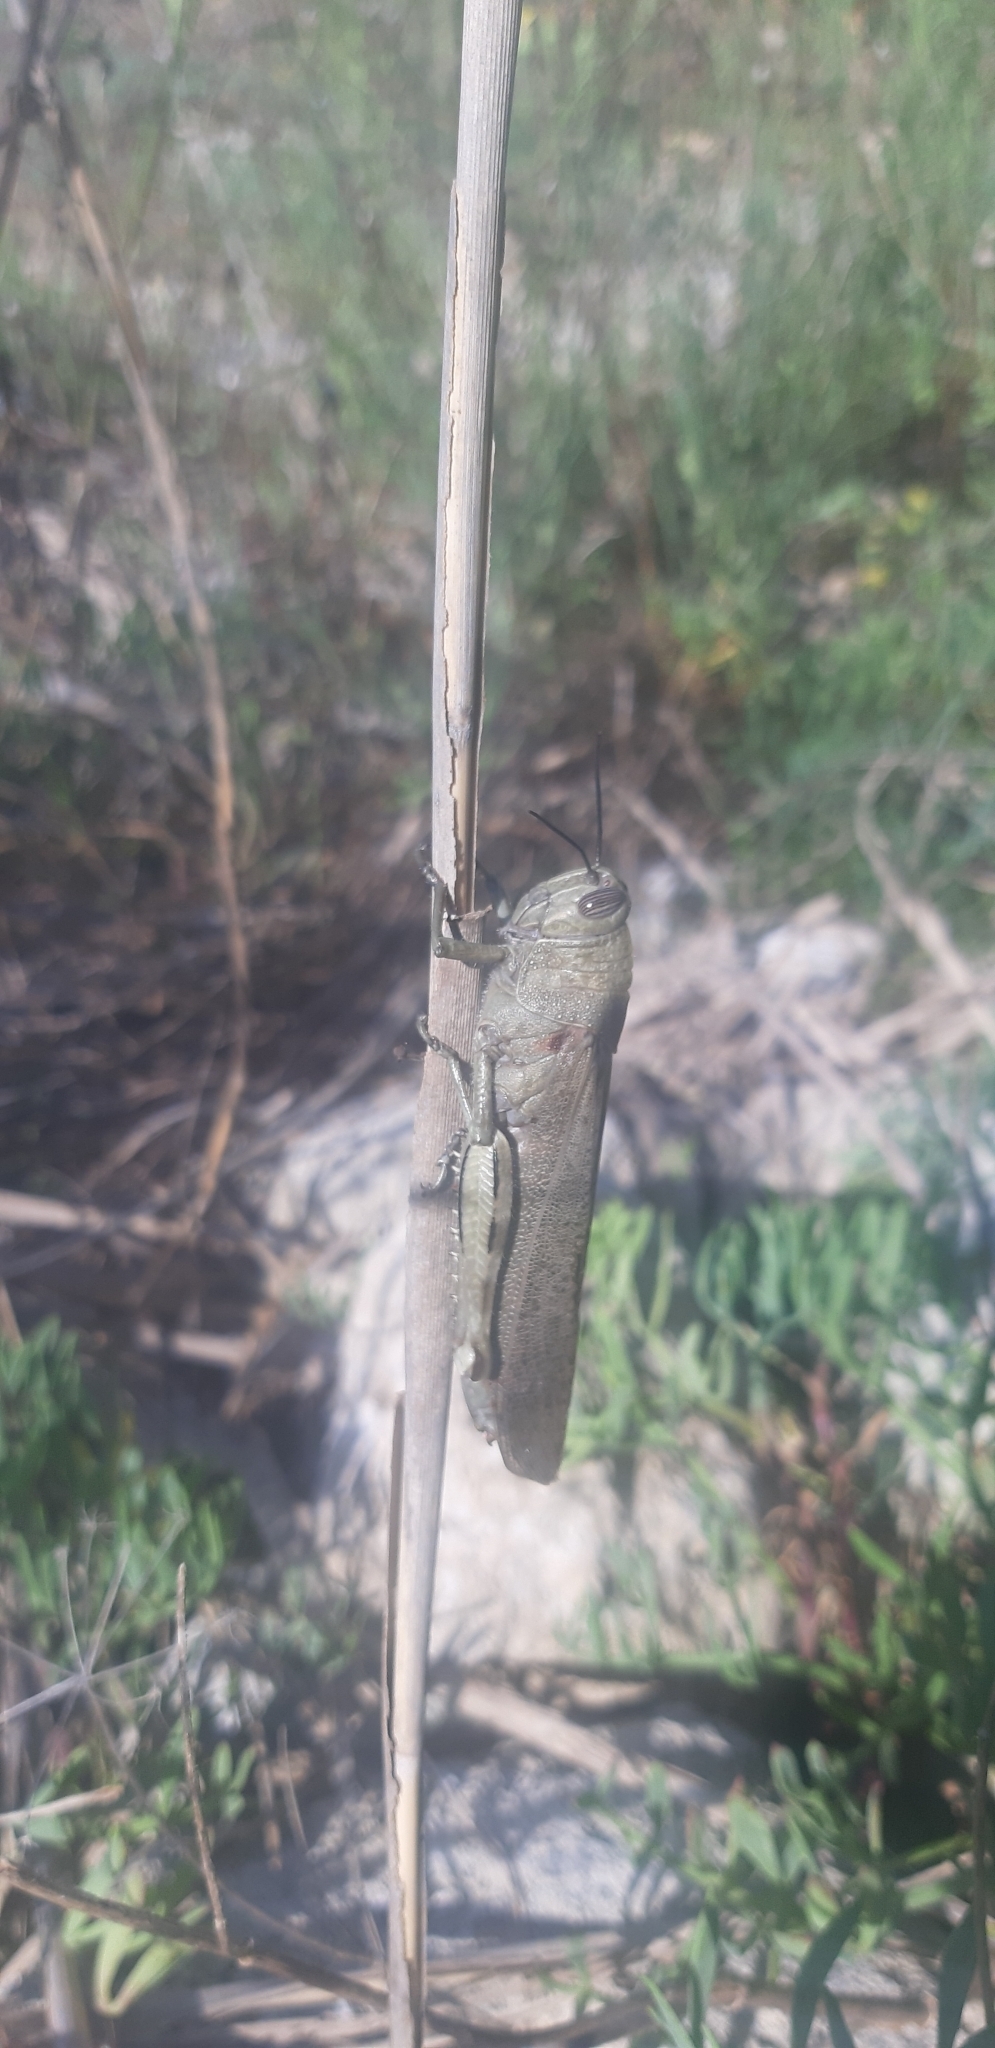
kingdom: Animalia
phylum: Arthropoda
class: Insecta
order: Orthoptera
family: Acrididae
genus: Anacridium
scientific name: Anacridium aegyptium
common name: Egyptian grasshopper
